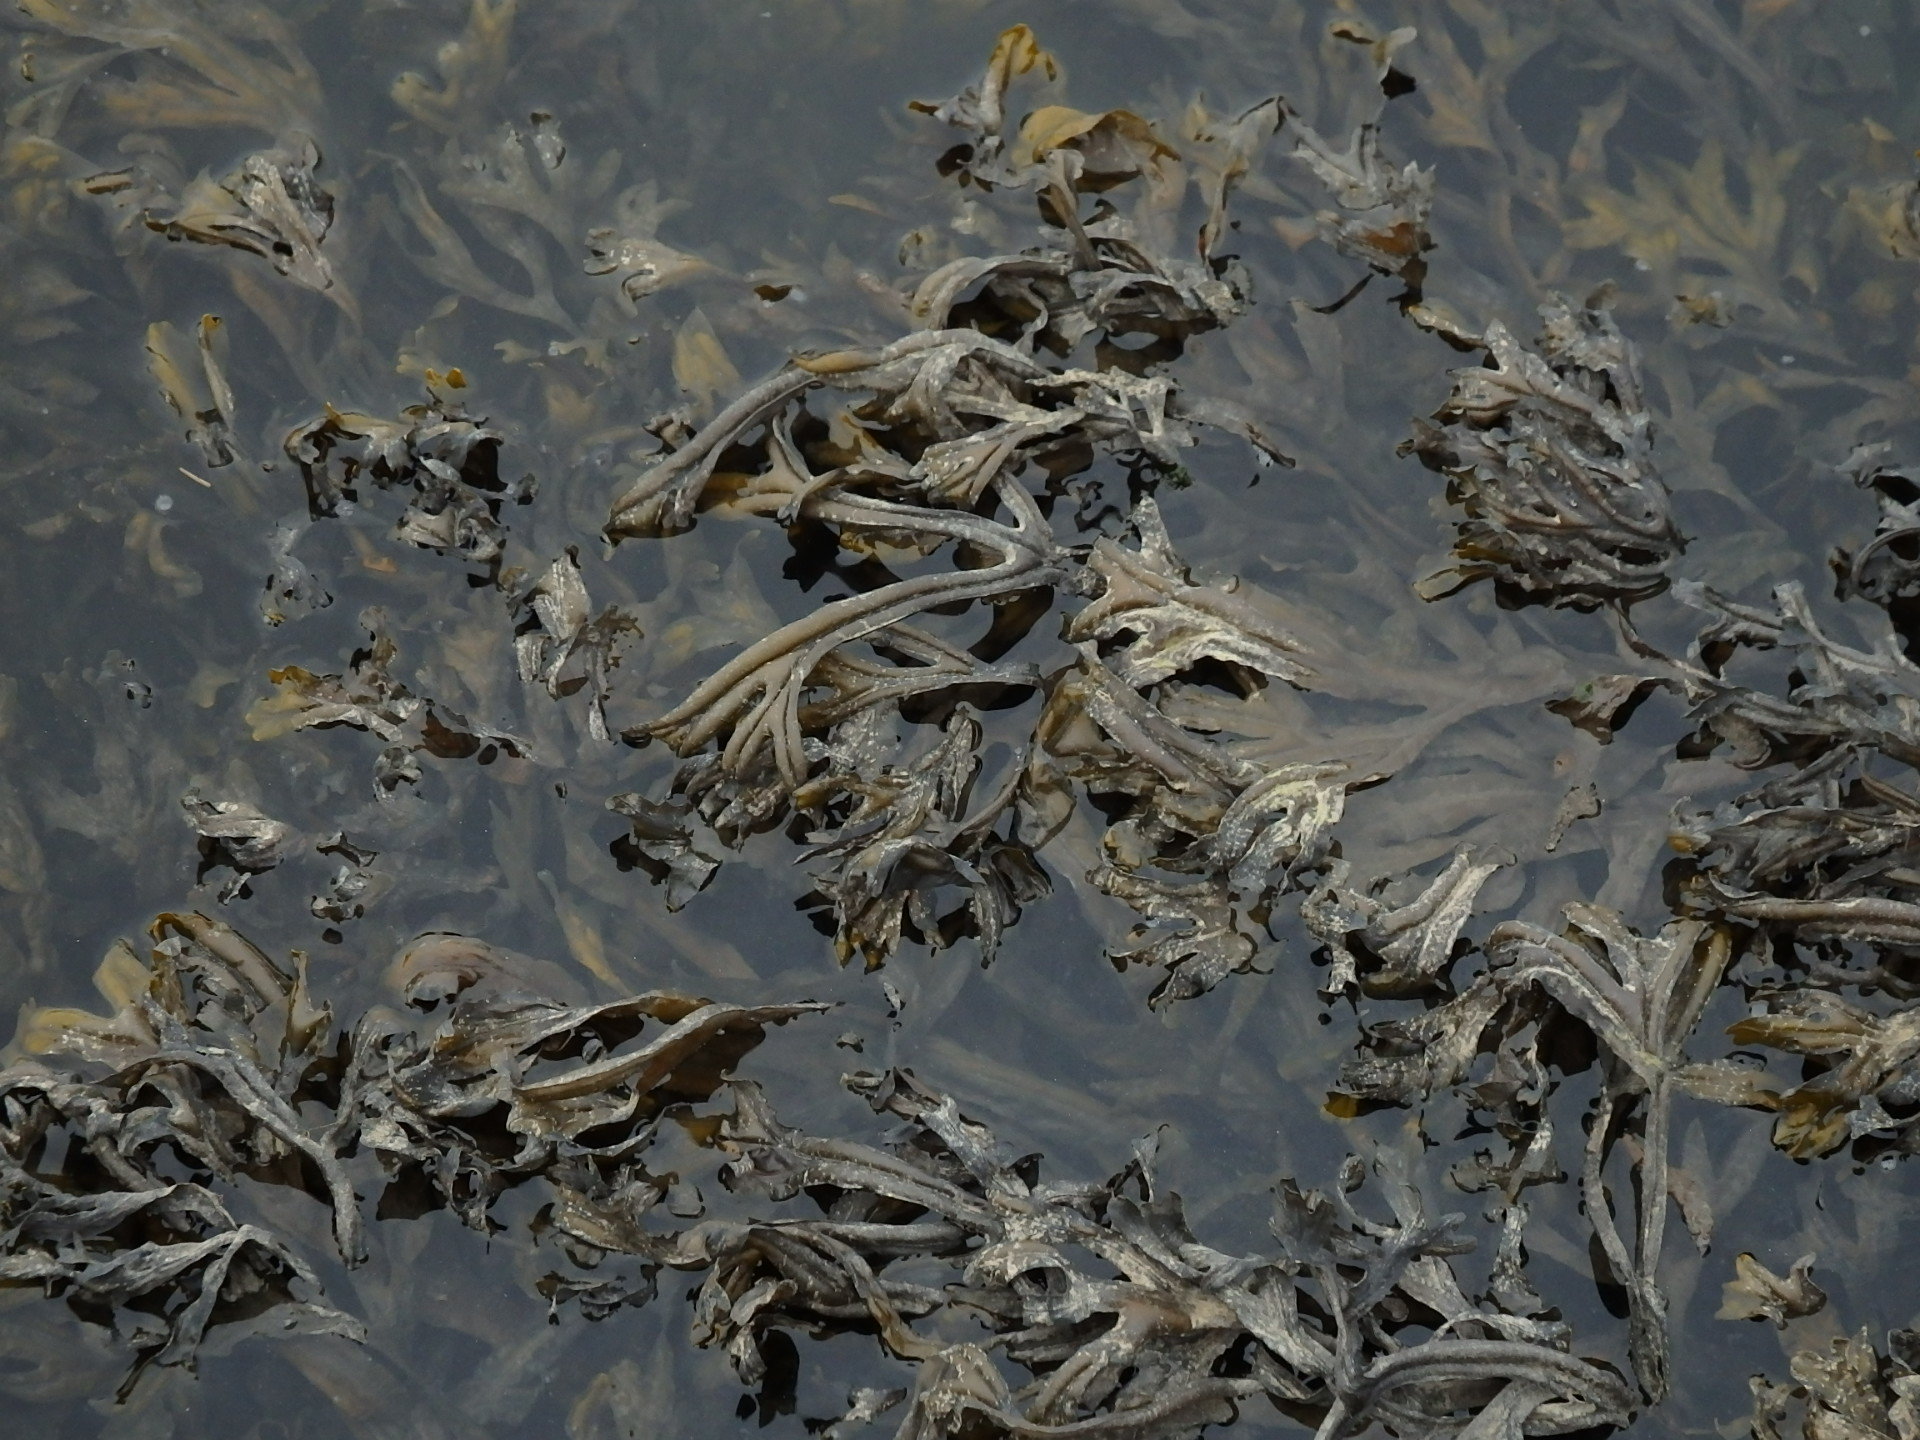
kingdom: Chromista
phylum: Ochrophyta
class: Phaeophyceae
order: Fucales
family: Fucaceae
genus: Fucus
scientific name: Fucus ceranoides
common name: Horned wrack
